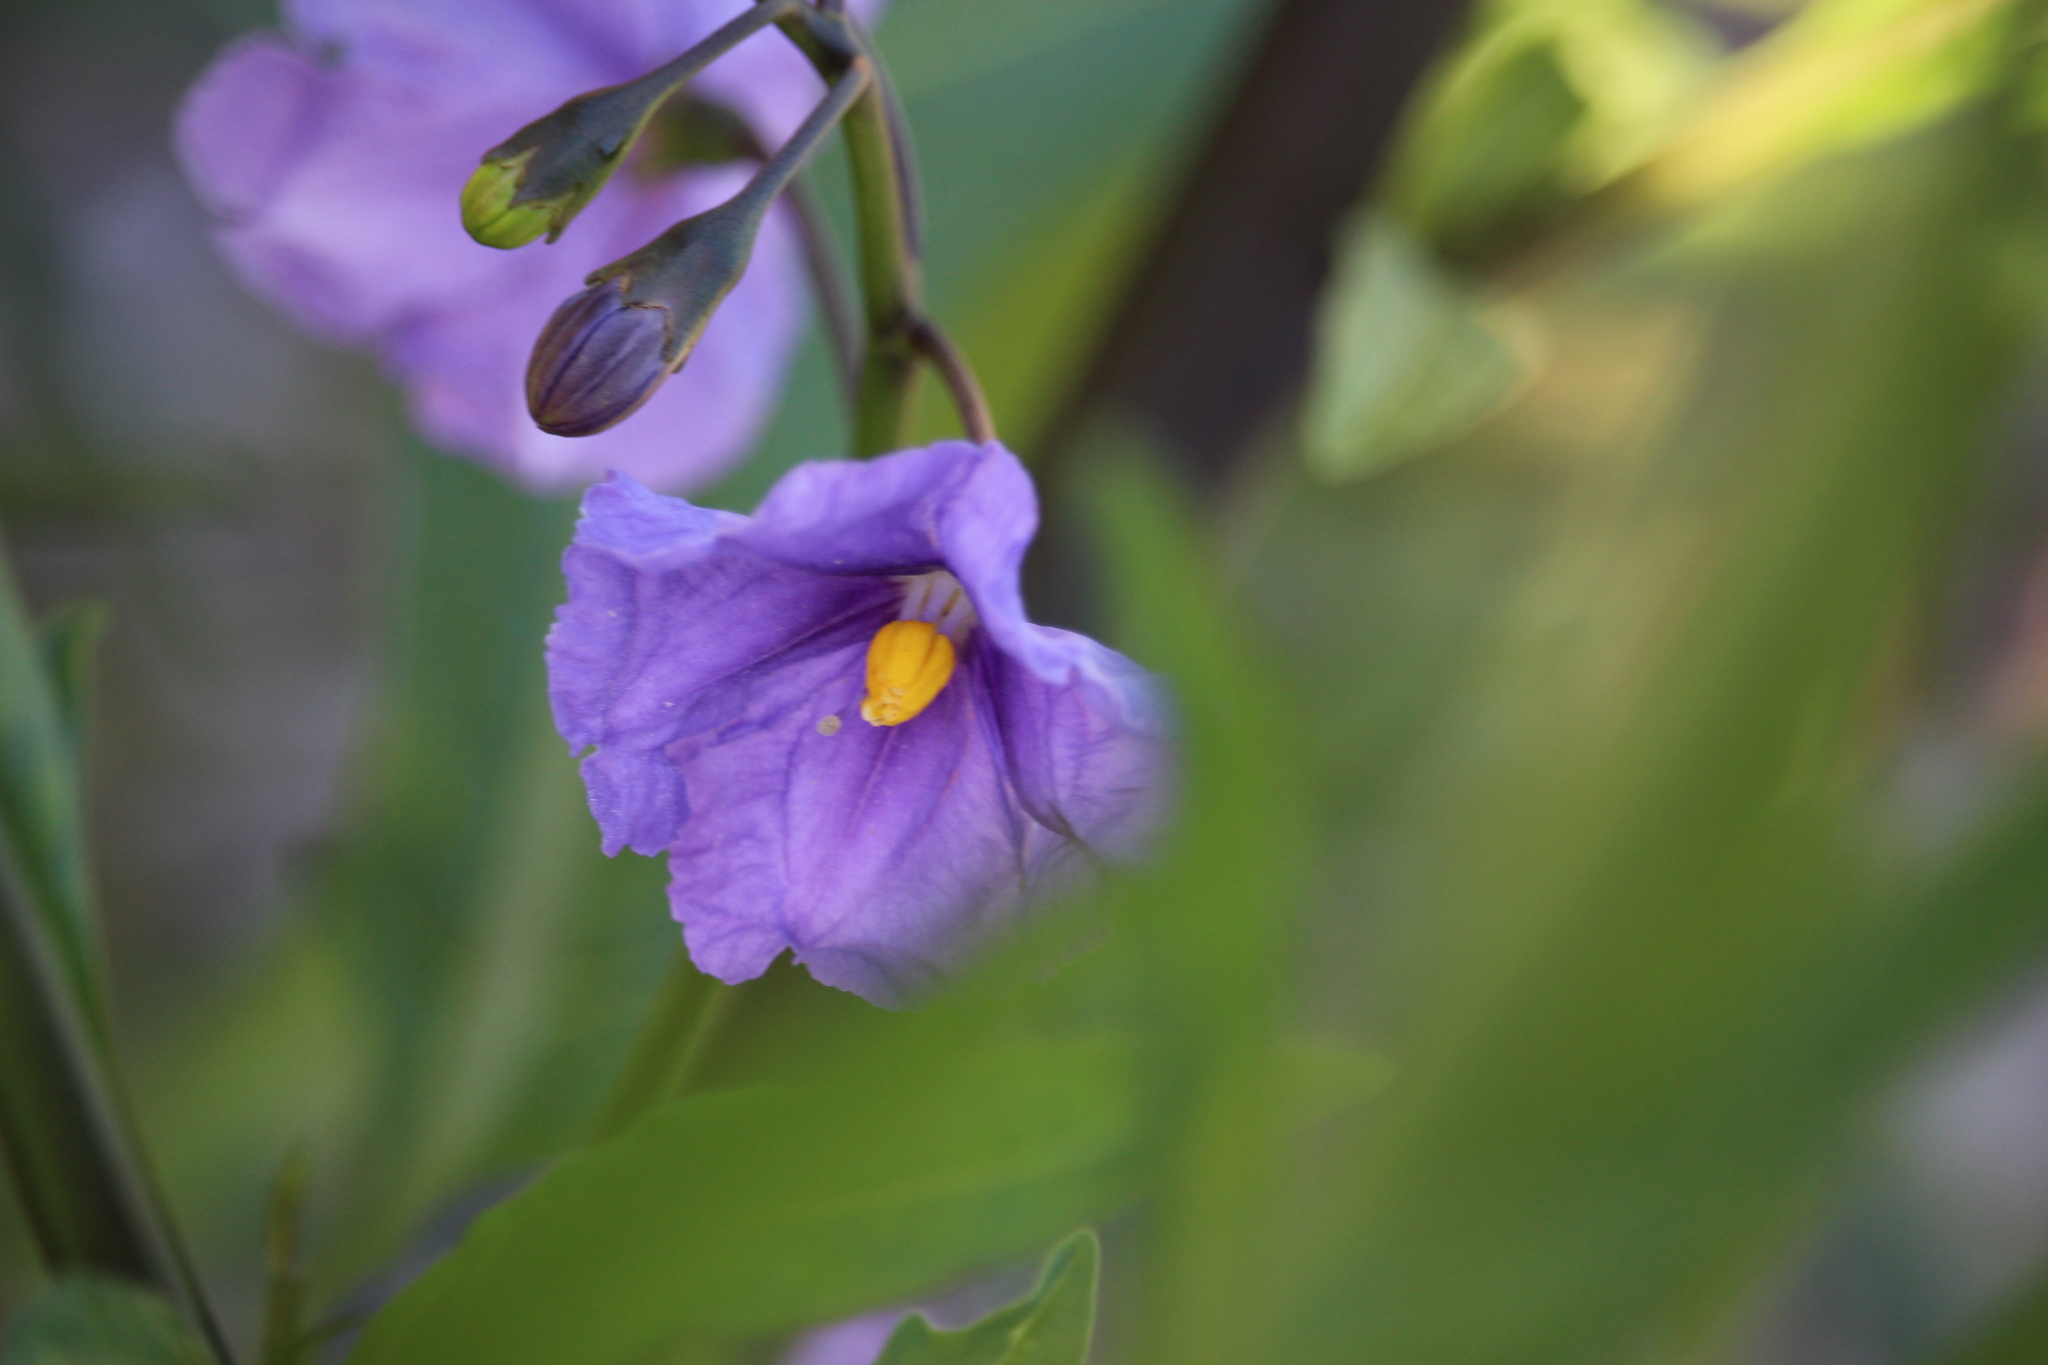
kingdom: Plantae
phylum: Tracheophyta
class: Magnoliopsida
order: Solanales
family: Solanaceae
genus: Solanum
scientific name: Solanum laciniatum
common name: Kangaroo-apple
